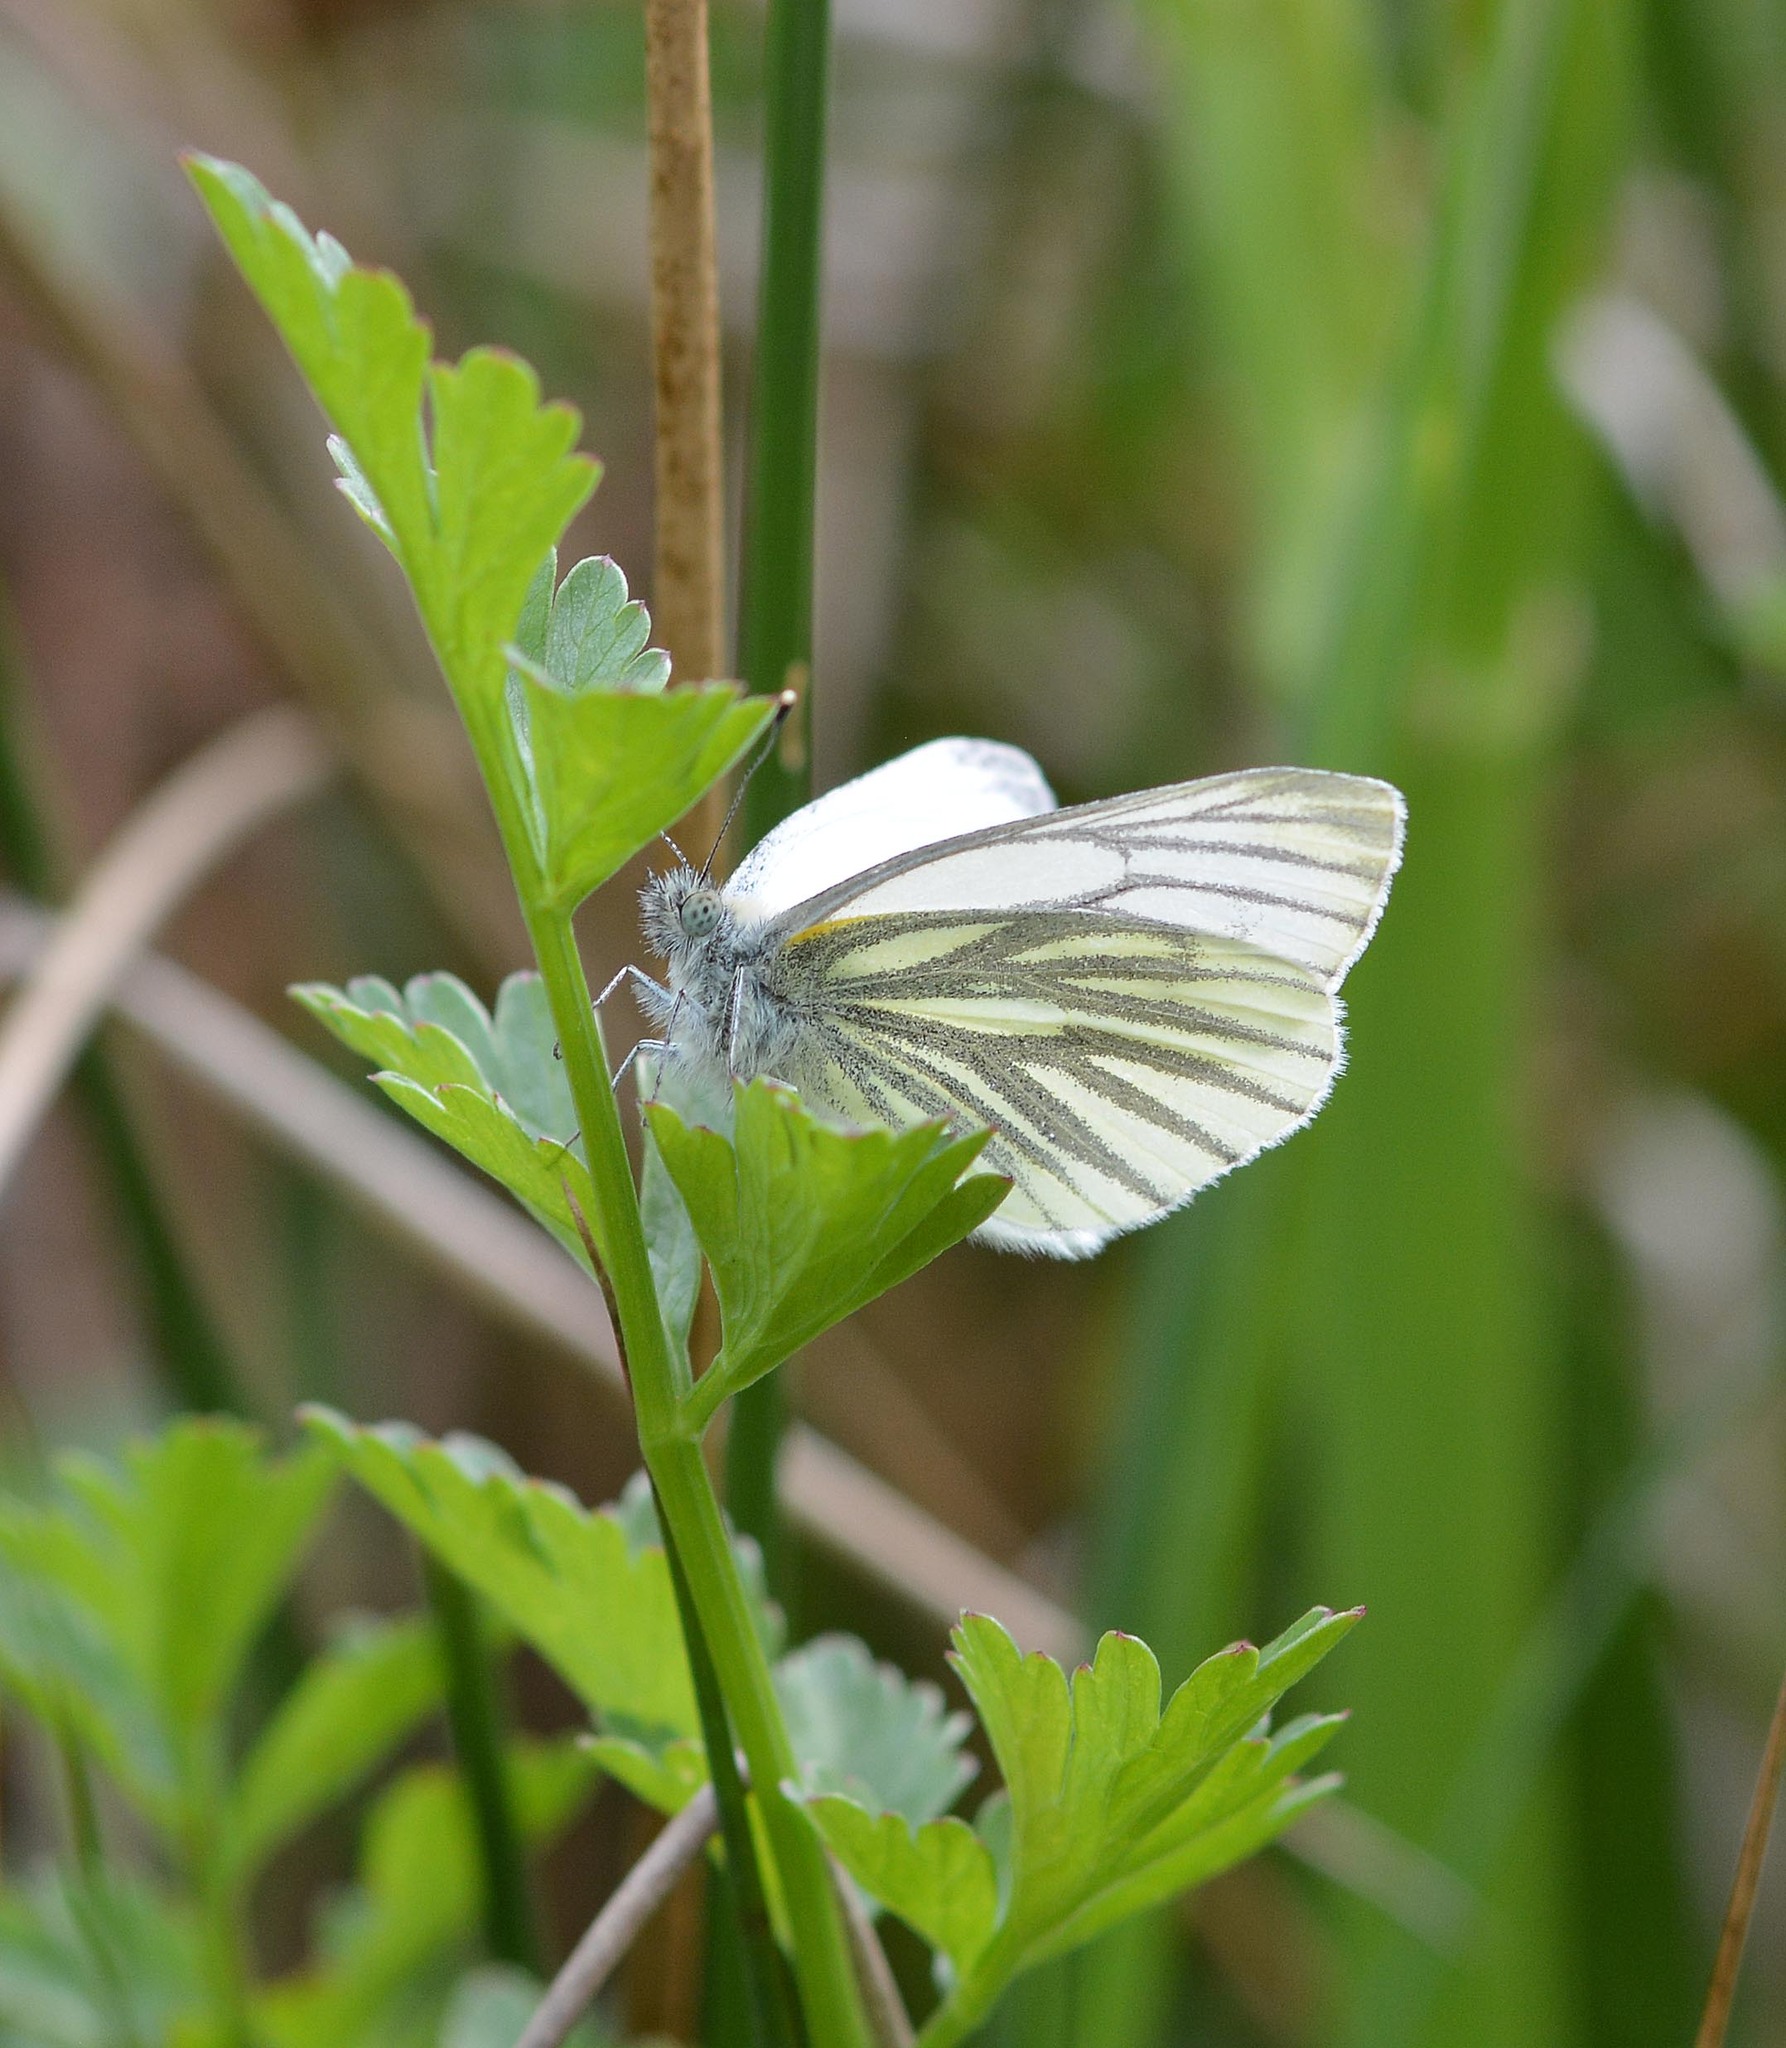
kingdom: Animalia
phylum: Arthropoda
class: Insecta
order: Lepidoptera
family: Pieridae
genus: Pieris
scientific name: Pieris napi
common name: Green-veined white
